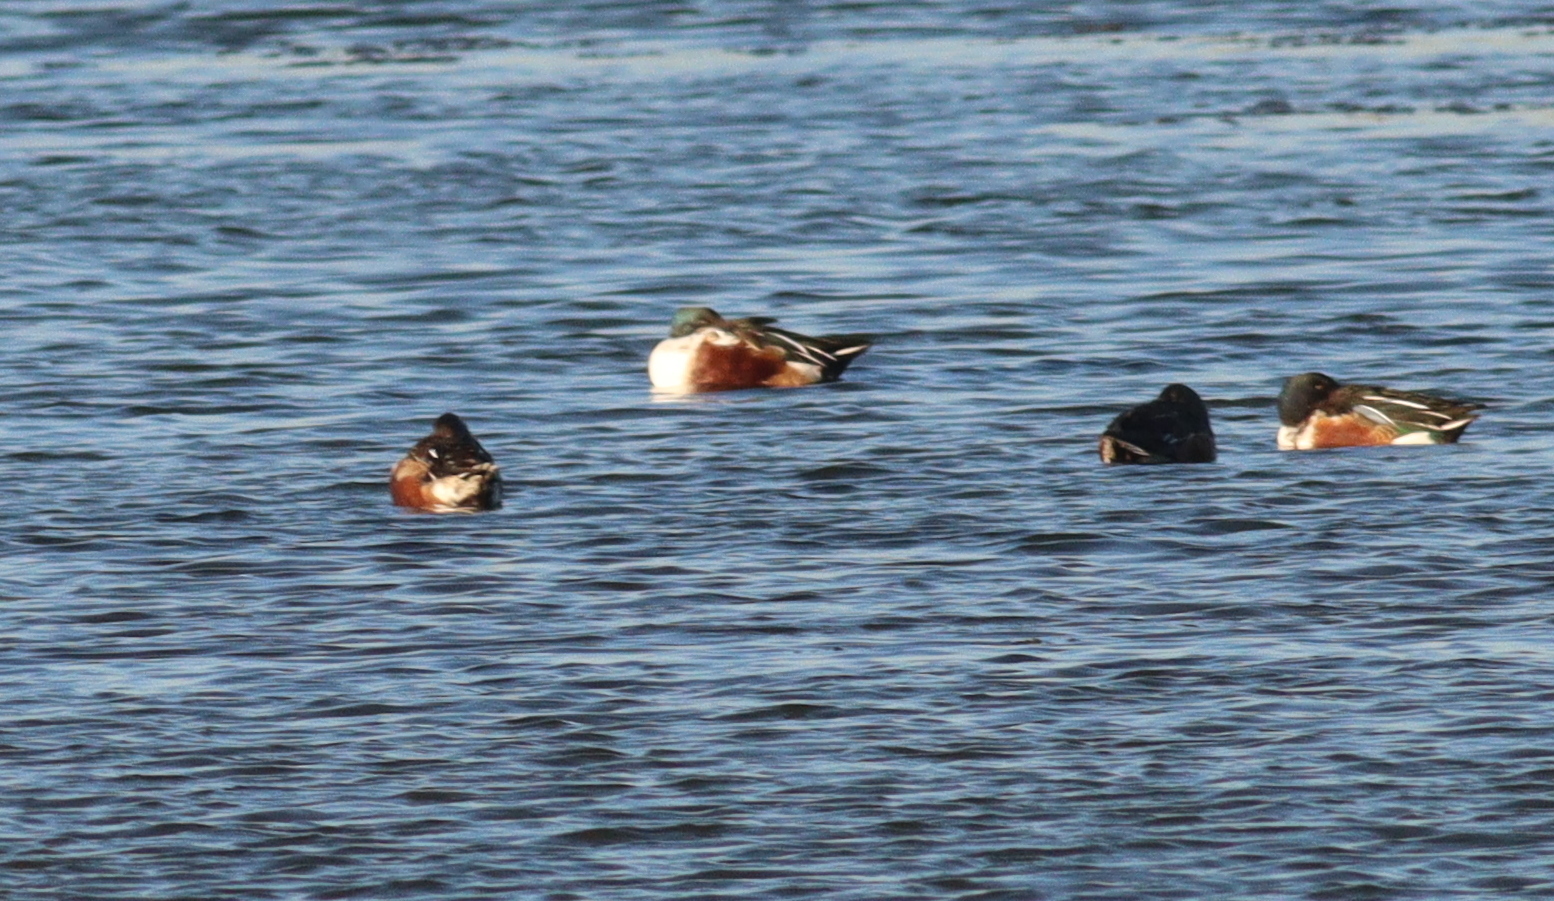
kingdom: Animalia
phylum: Chordata
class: Aves
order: Anseriformes
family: Anatidae
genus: Spatula
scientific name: Spatula clypeata
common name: Northern shoveler
